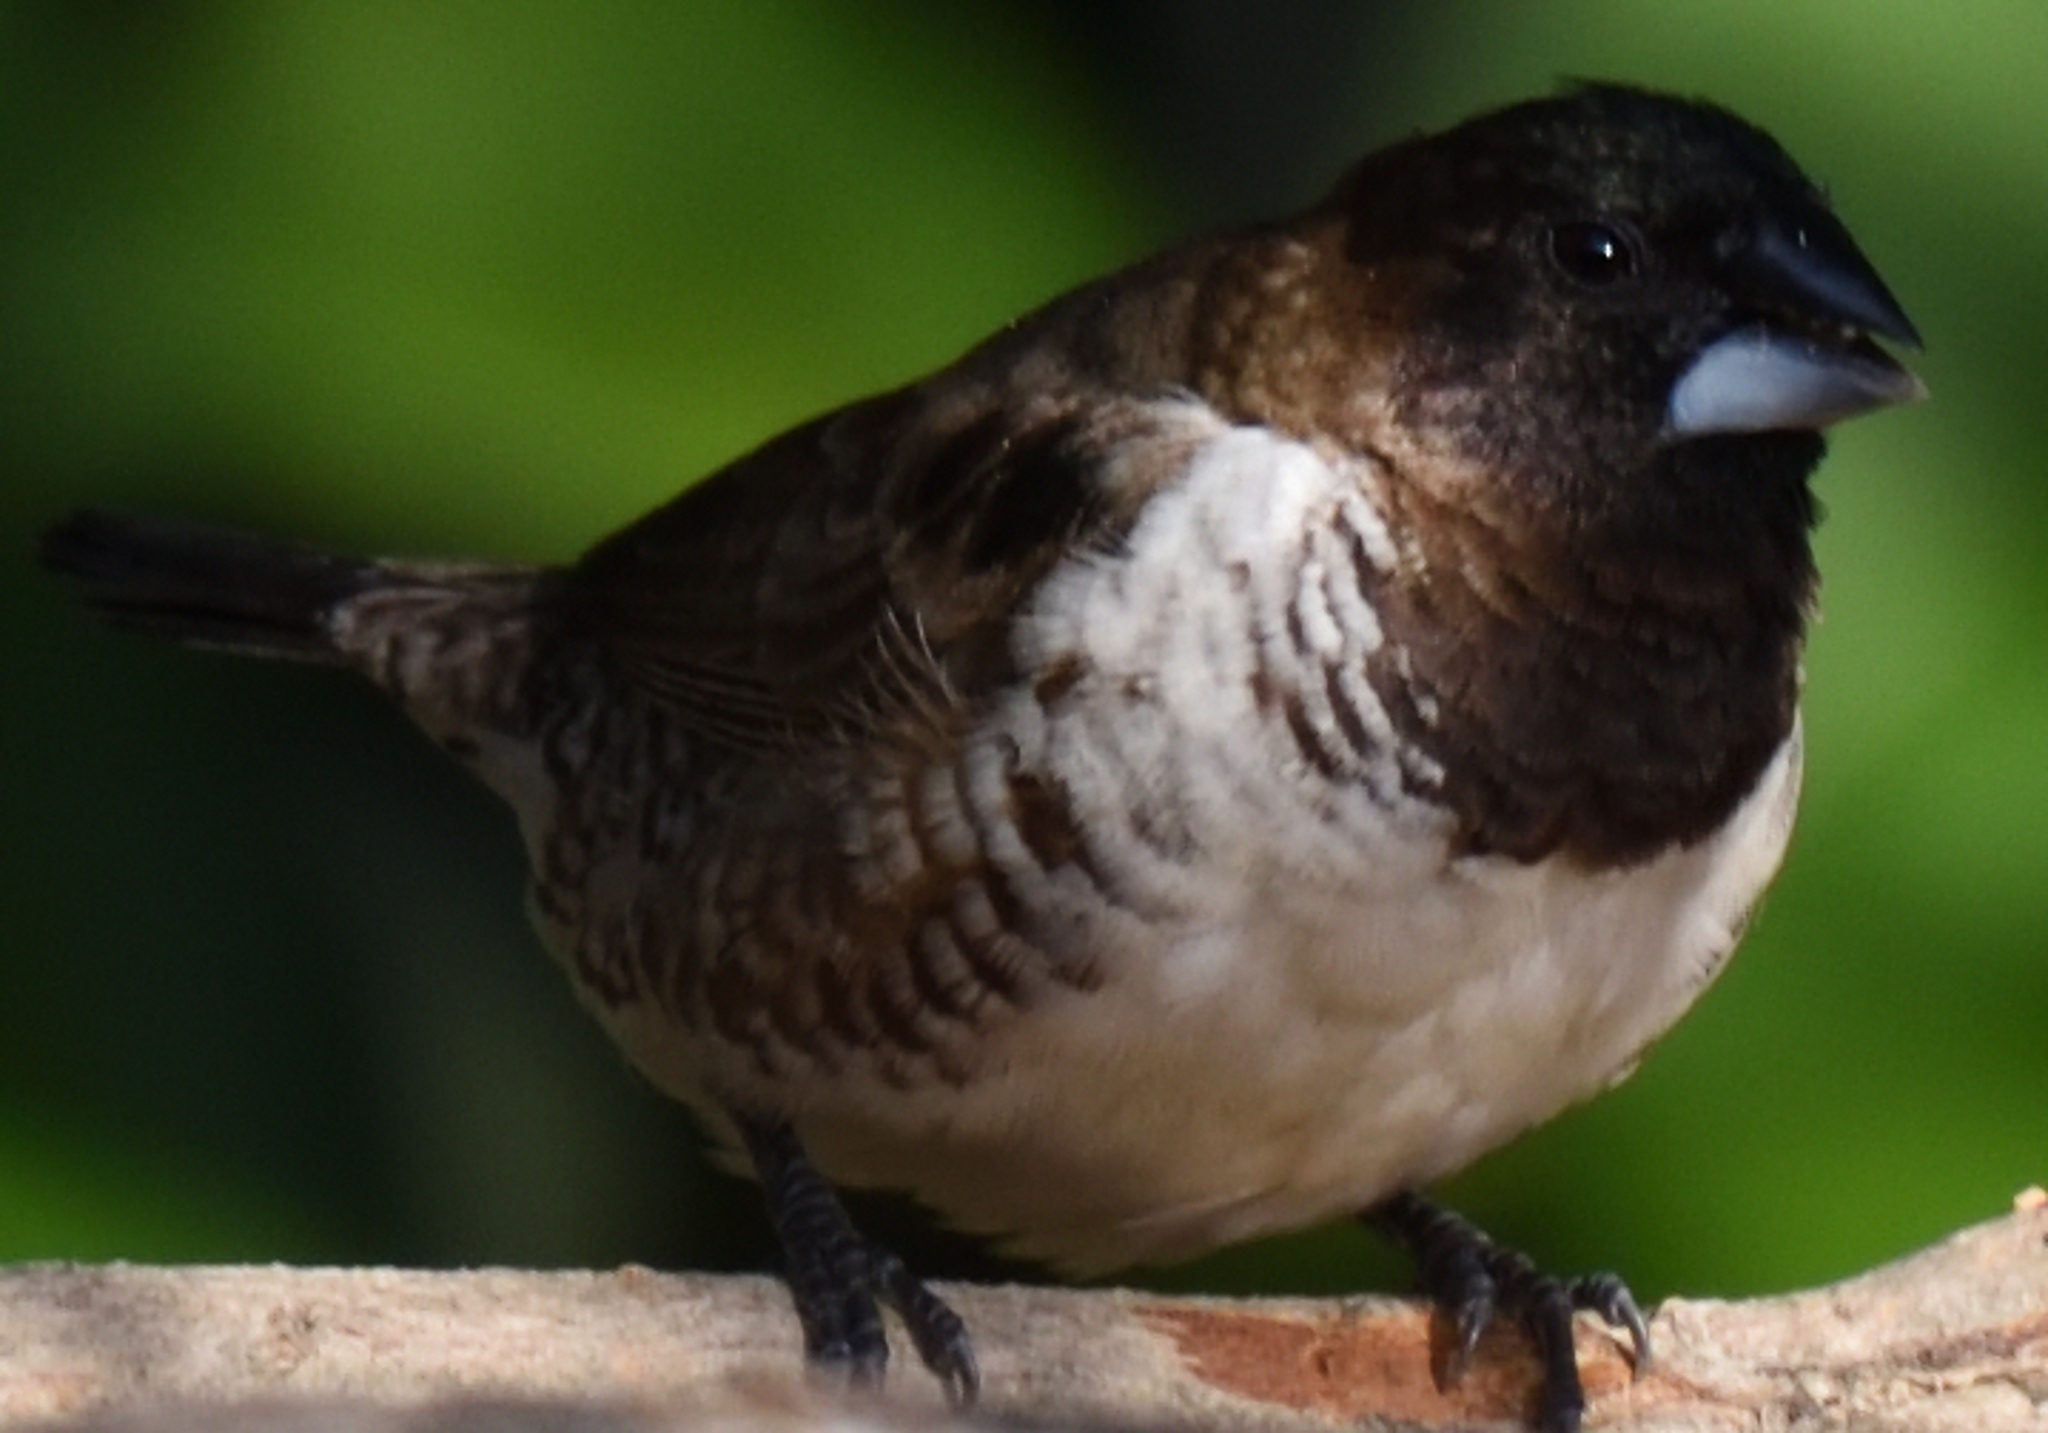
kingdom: Animalia
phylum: Chordata
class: Aves
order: Passeriformes
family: Estrildidae
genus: Lonchura
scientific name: Lonchura cucullata
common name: Bronze mannikin
